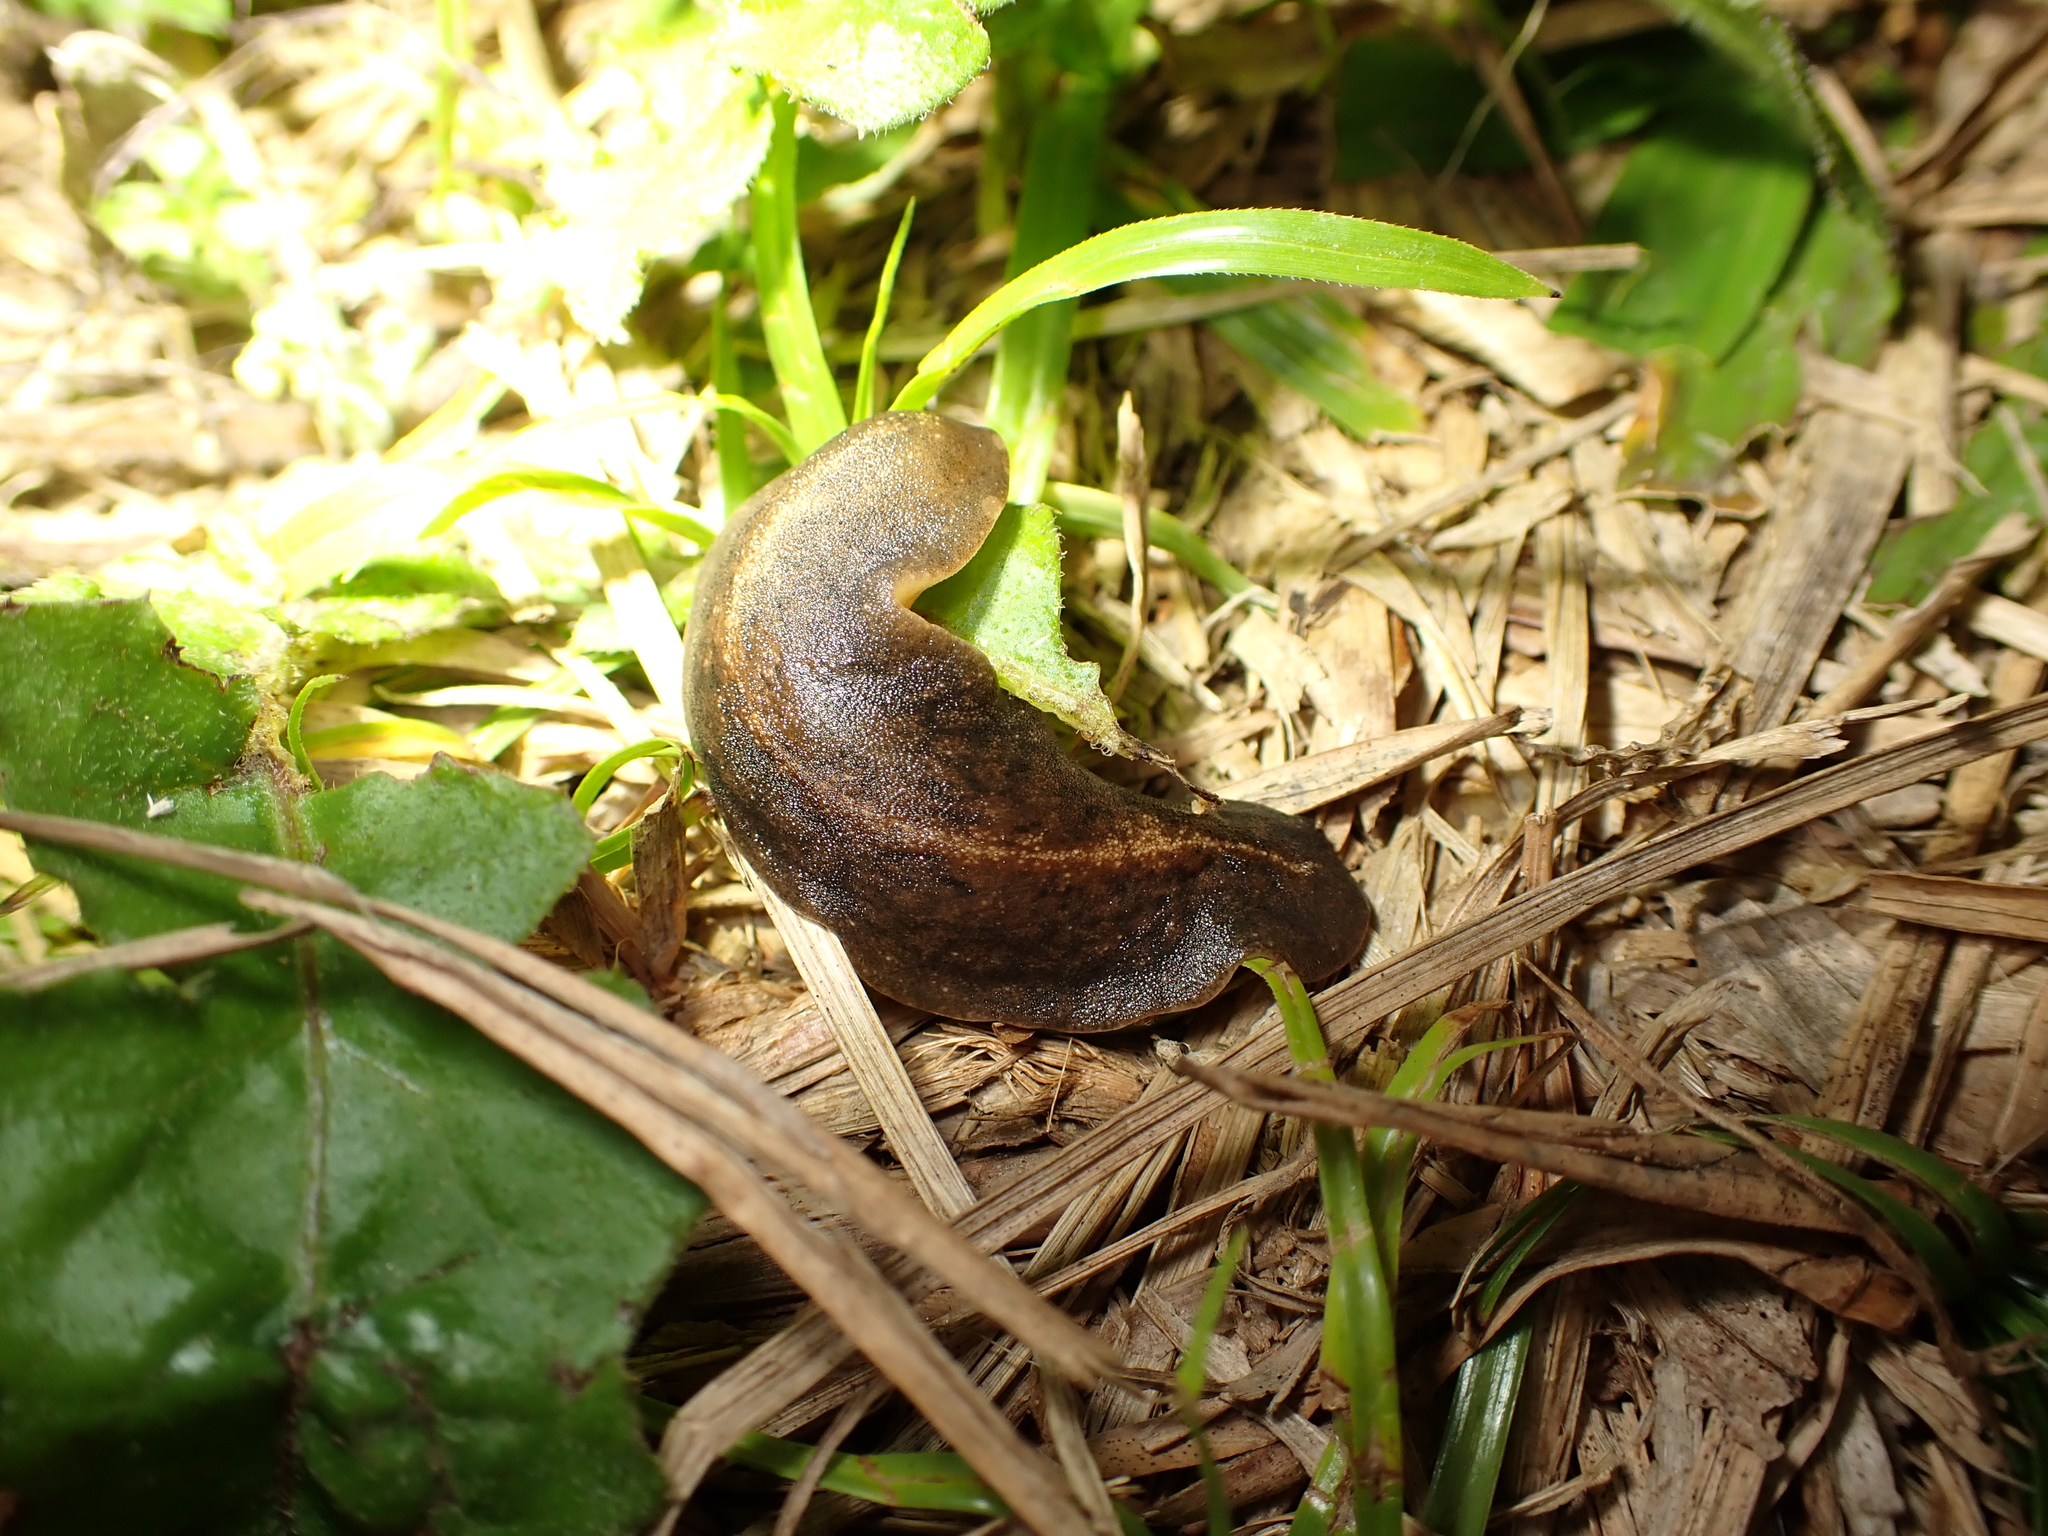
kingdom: Animalia
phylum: Mollusca
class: Gastropoda
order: Systellommatophora
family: Veronicellidae
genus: Laevicaulis
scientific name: Laevicaulis alte
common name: Tropical leatherleaf
